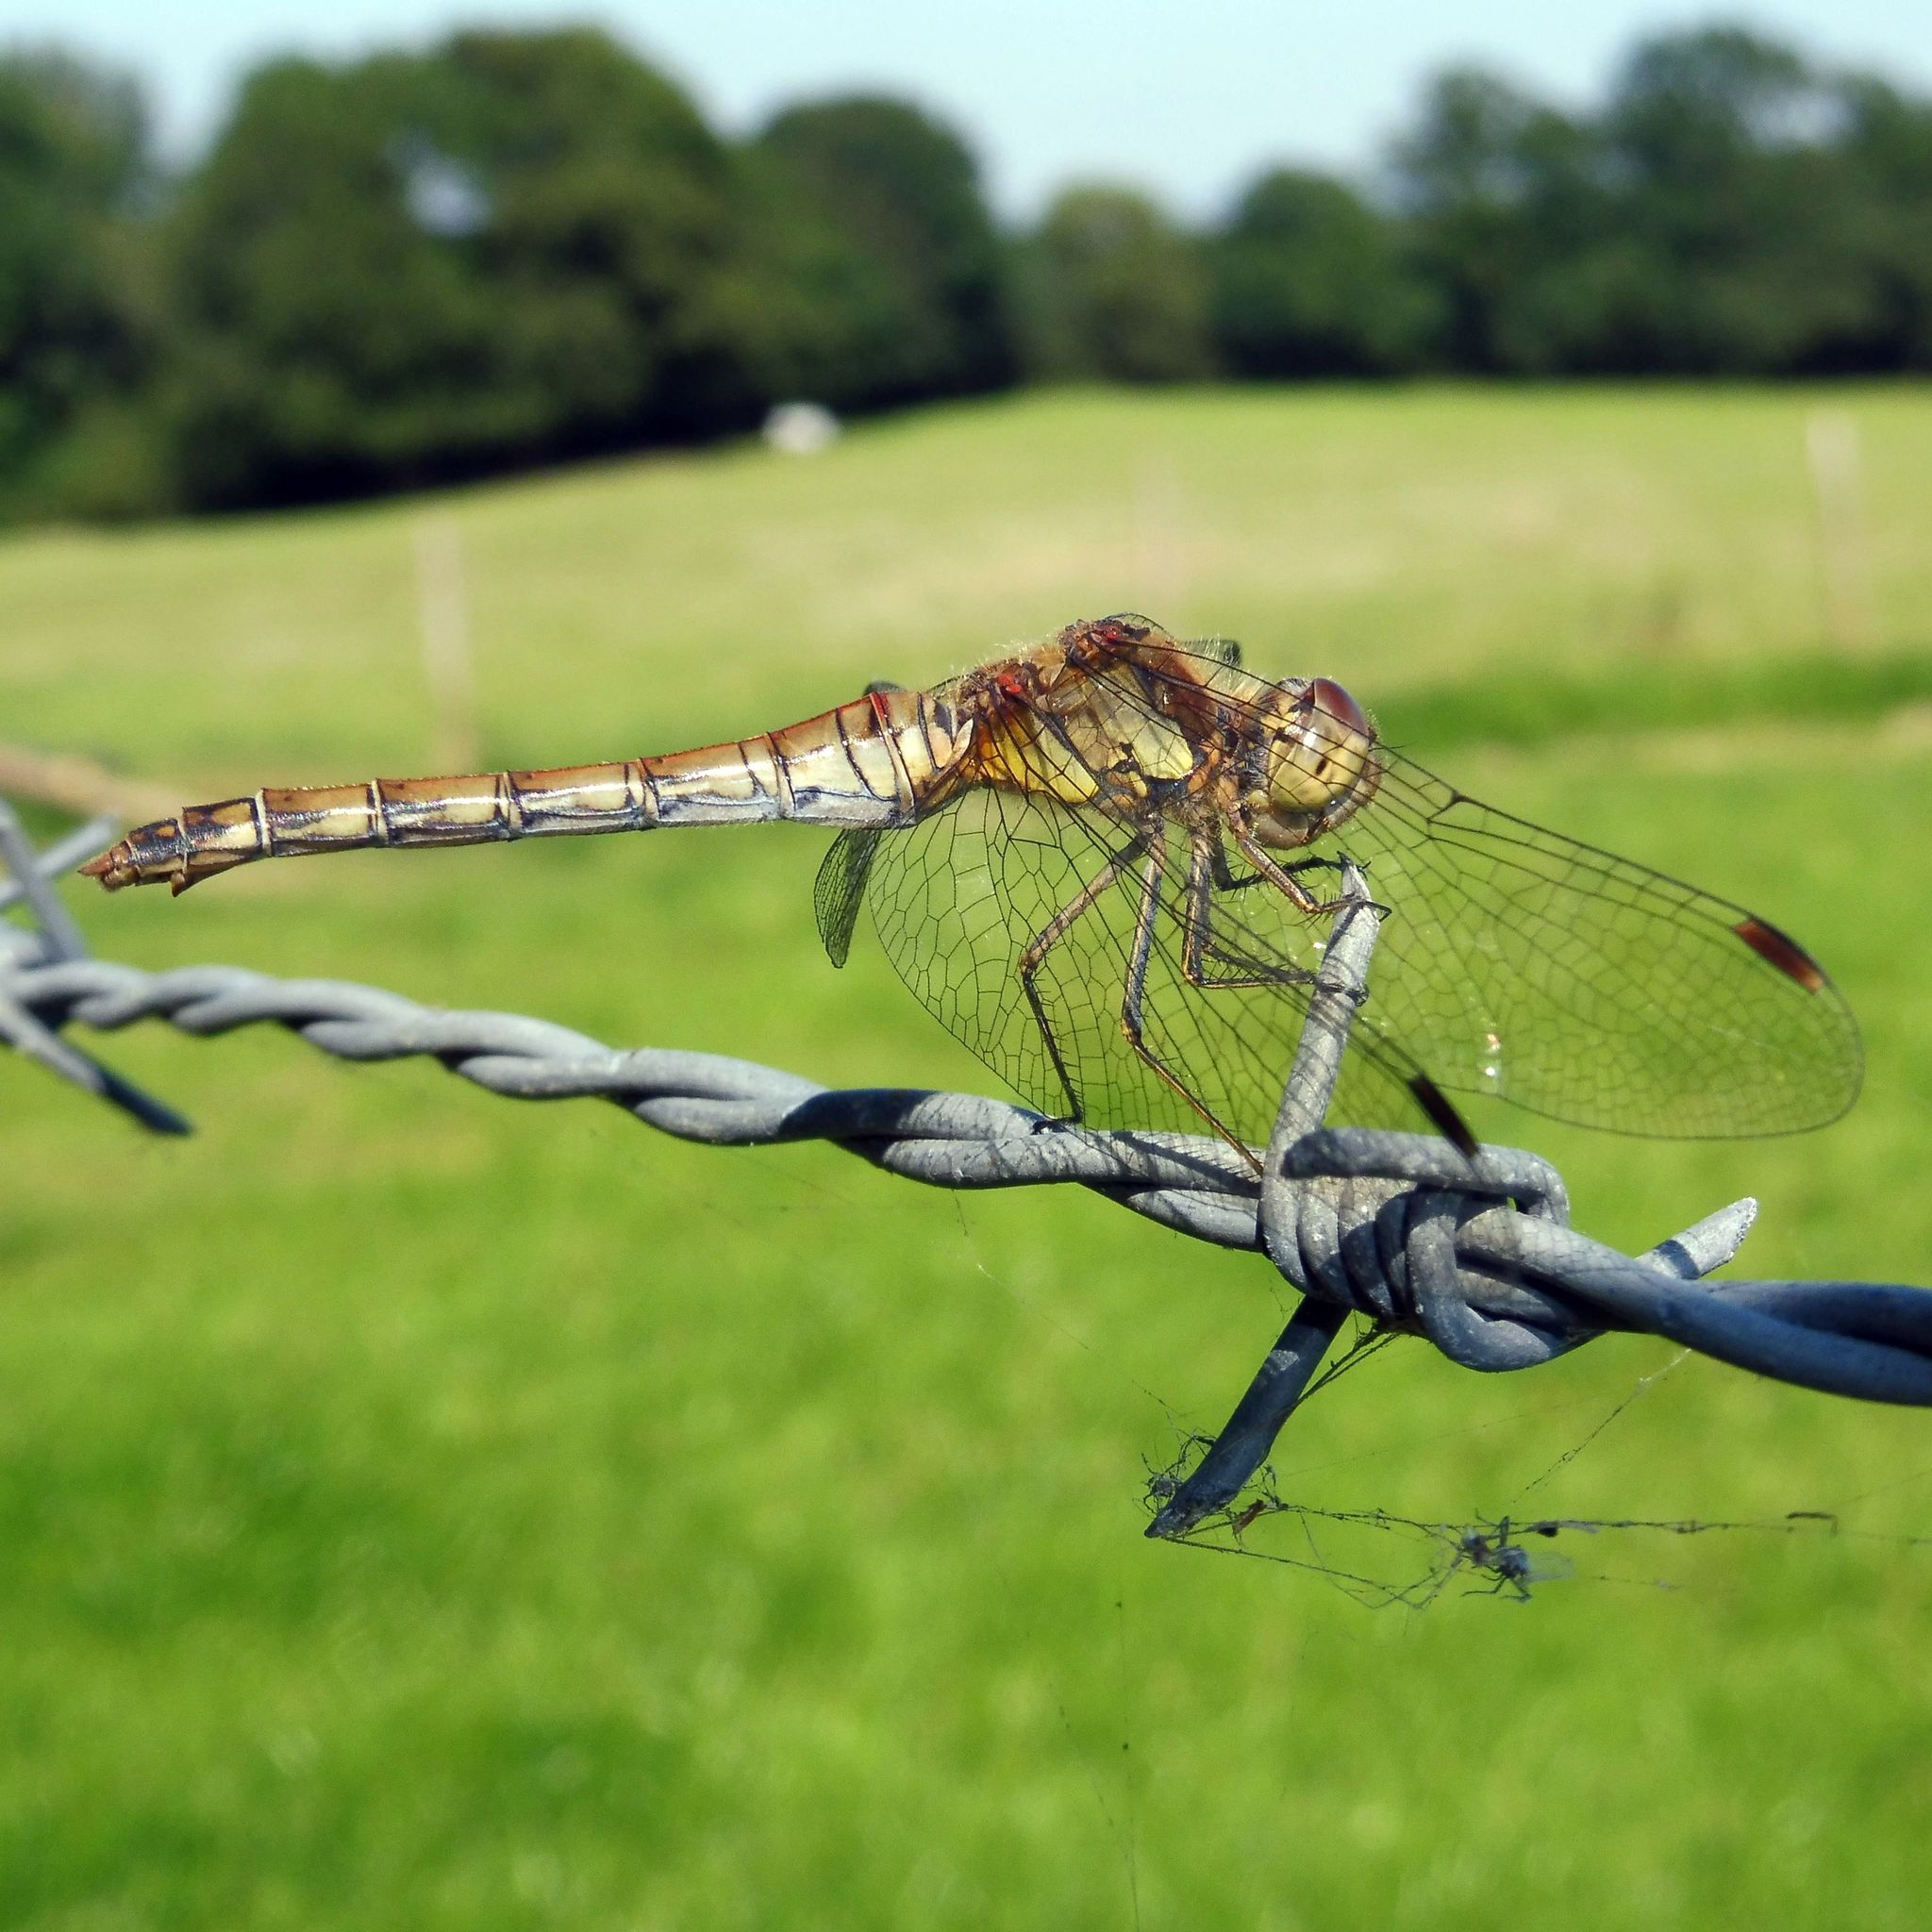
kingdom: Animalia
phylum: Arthropoda
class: Insecta
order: Odonata
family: Libellulidae
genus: Sympetrum
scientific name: Sympetrum striolatum
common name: Common darter
